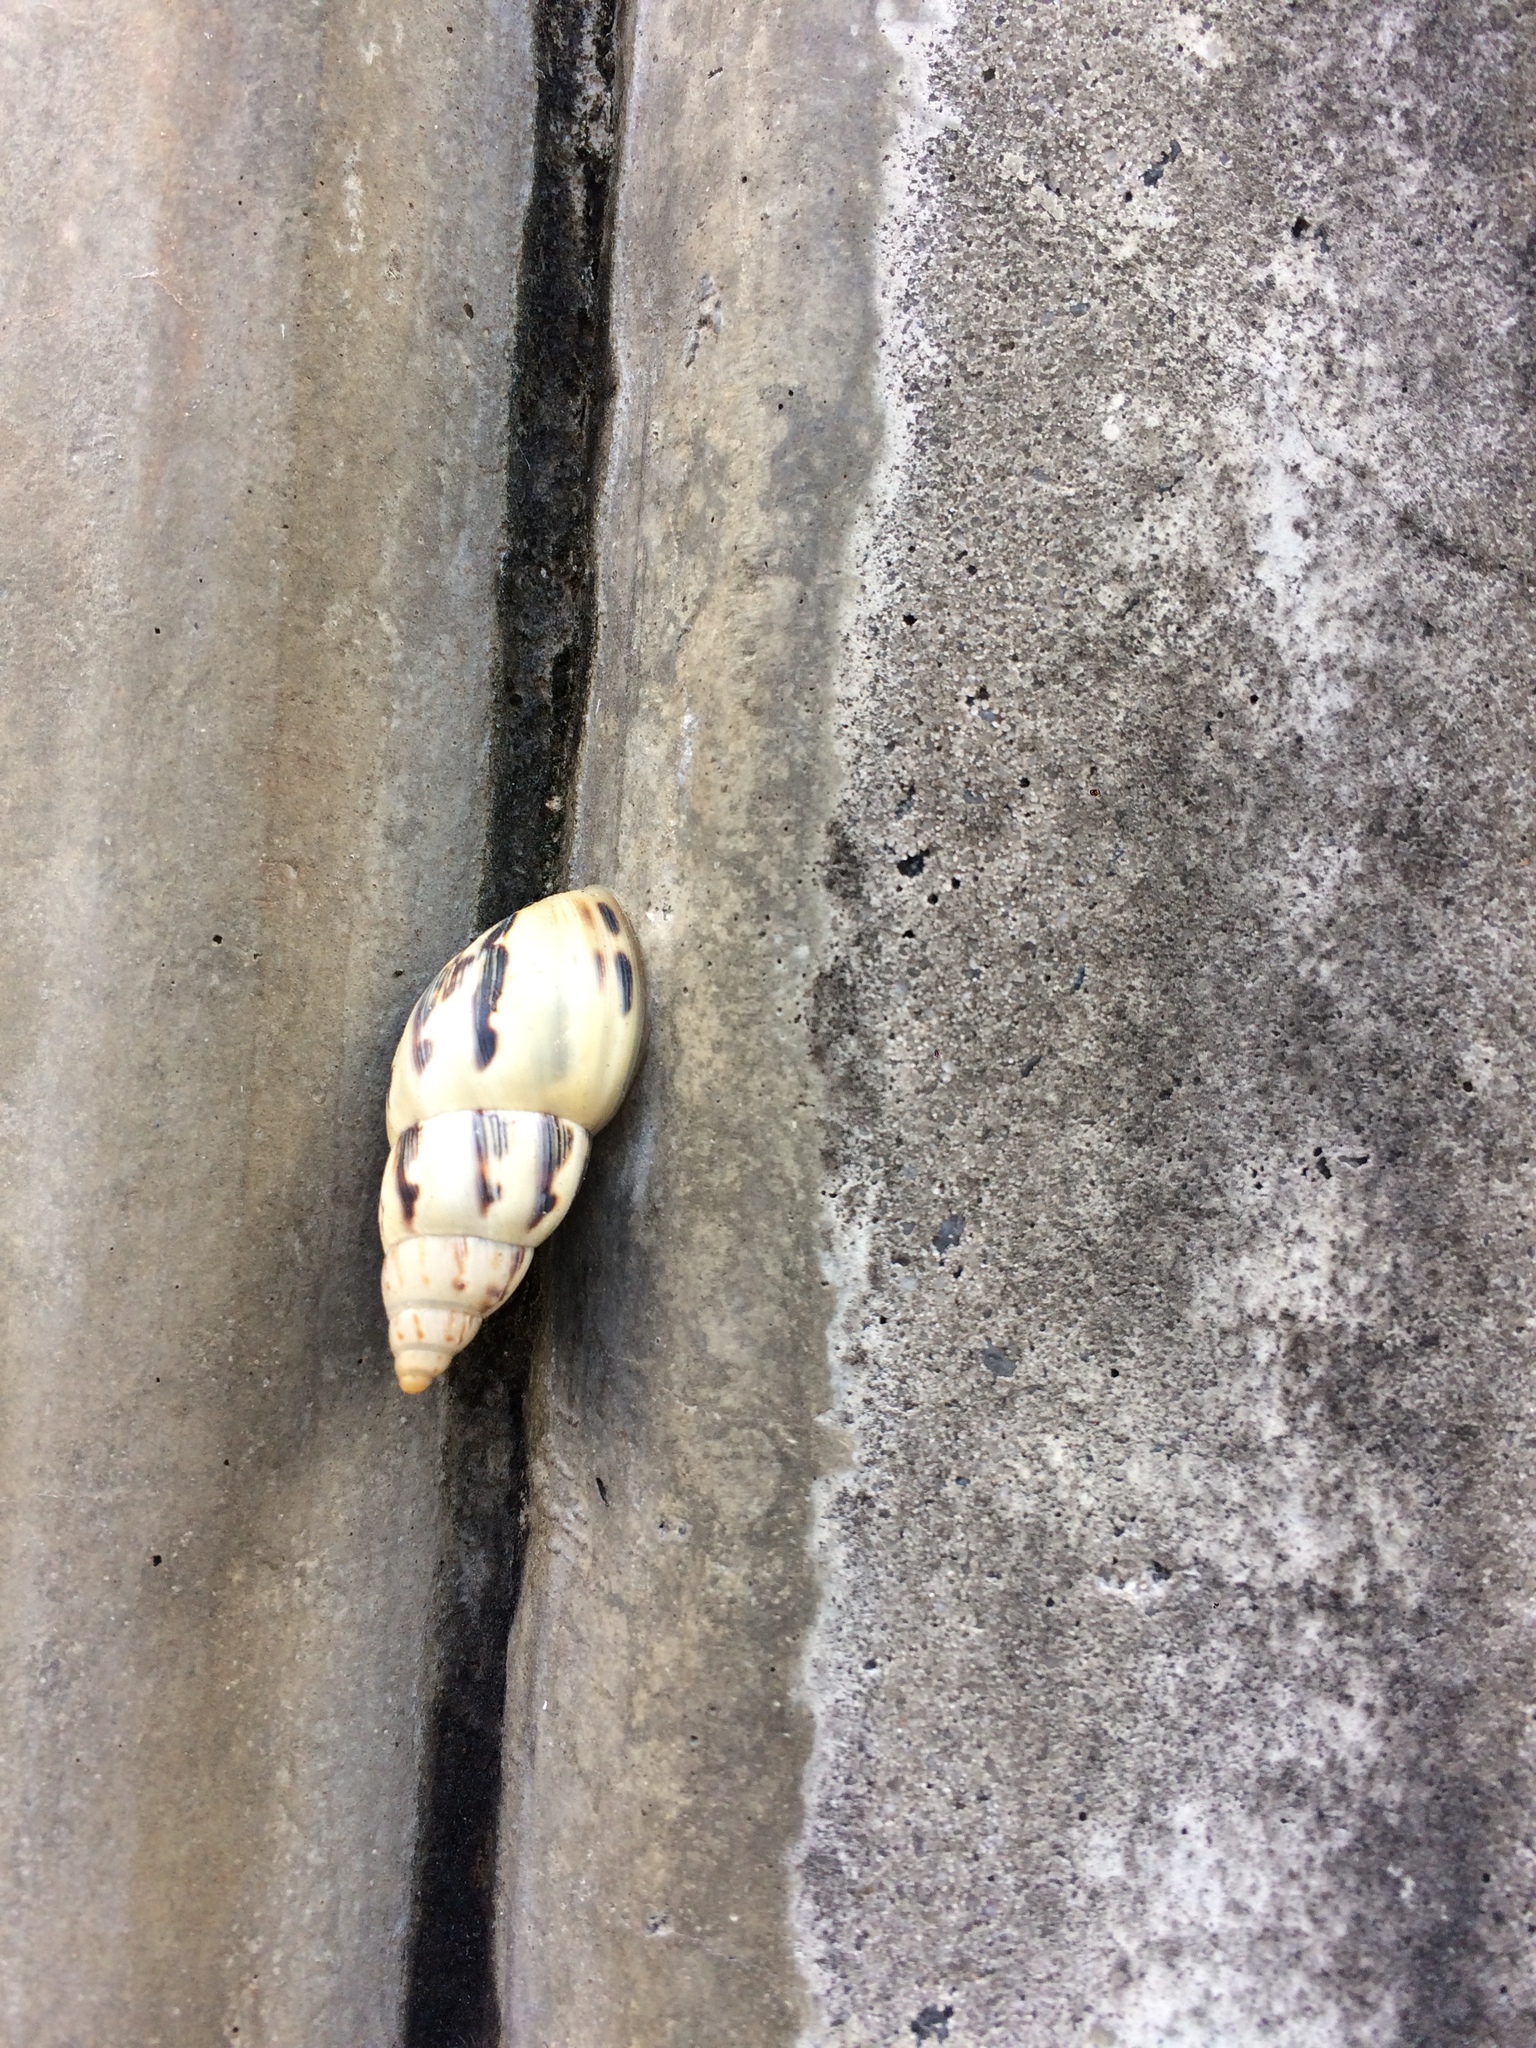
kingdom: Animalia
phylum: Mollusca
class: Gastropoda
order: Stylommatophora
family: Bulimulidae
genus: Drymaeus
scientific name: Drymaeus papyraceus
